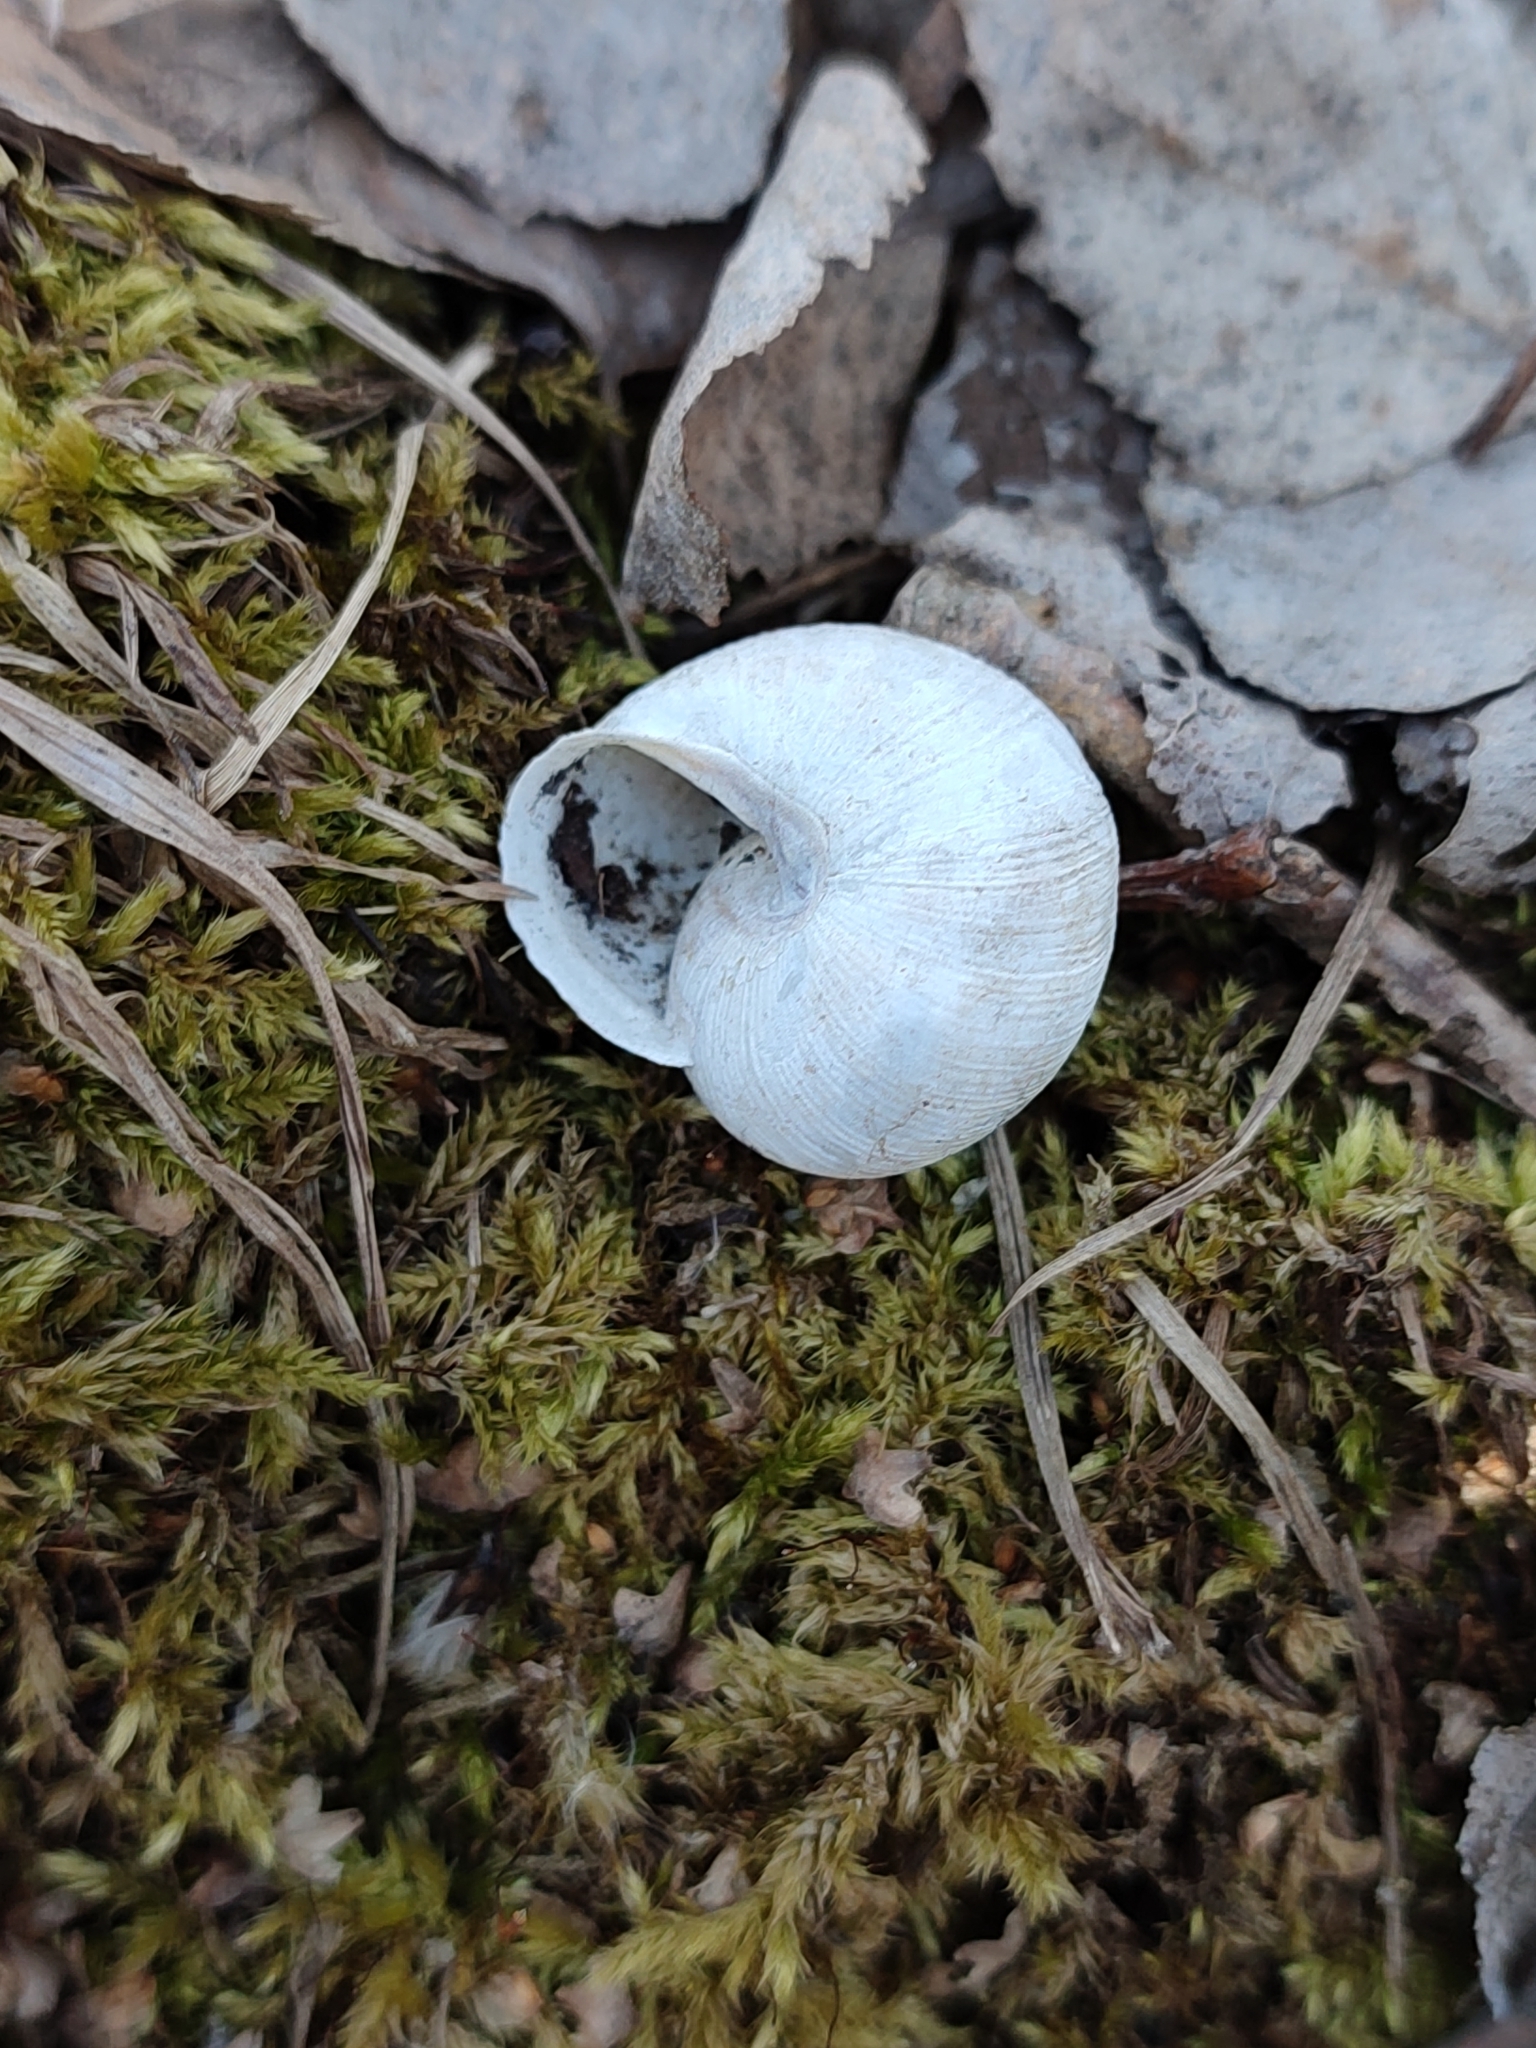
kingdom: Animalia
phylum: Mollusca
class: Gastropoda
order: Stylommatophora
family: Helicidae
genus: Caucasotachea
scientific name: Caucasotachea vindobonensis
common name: European helicid land snail
